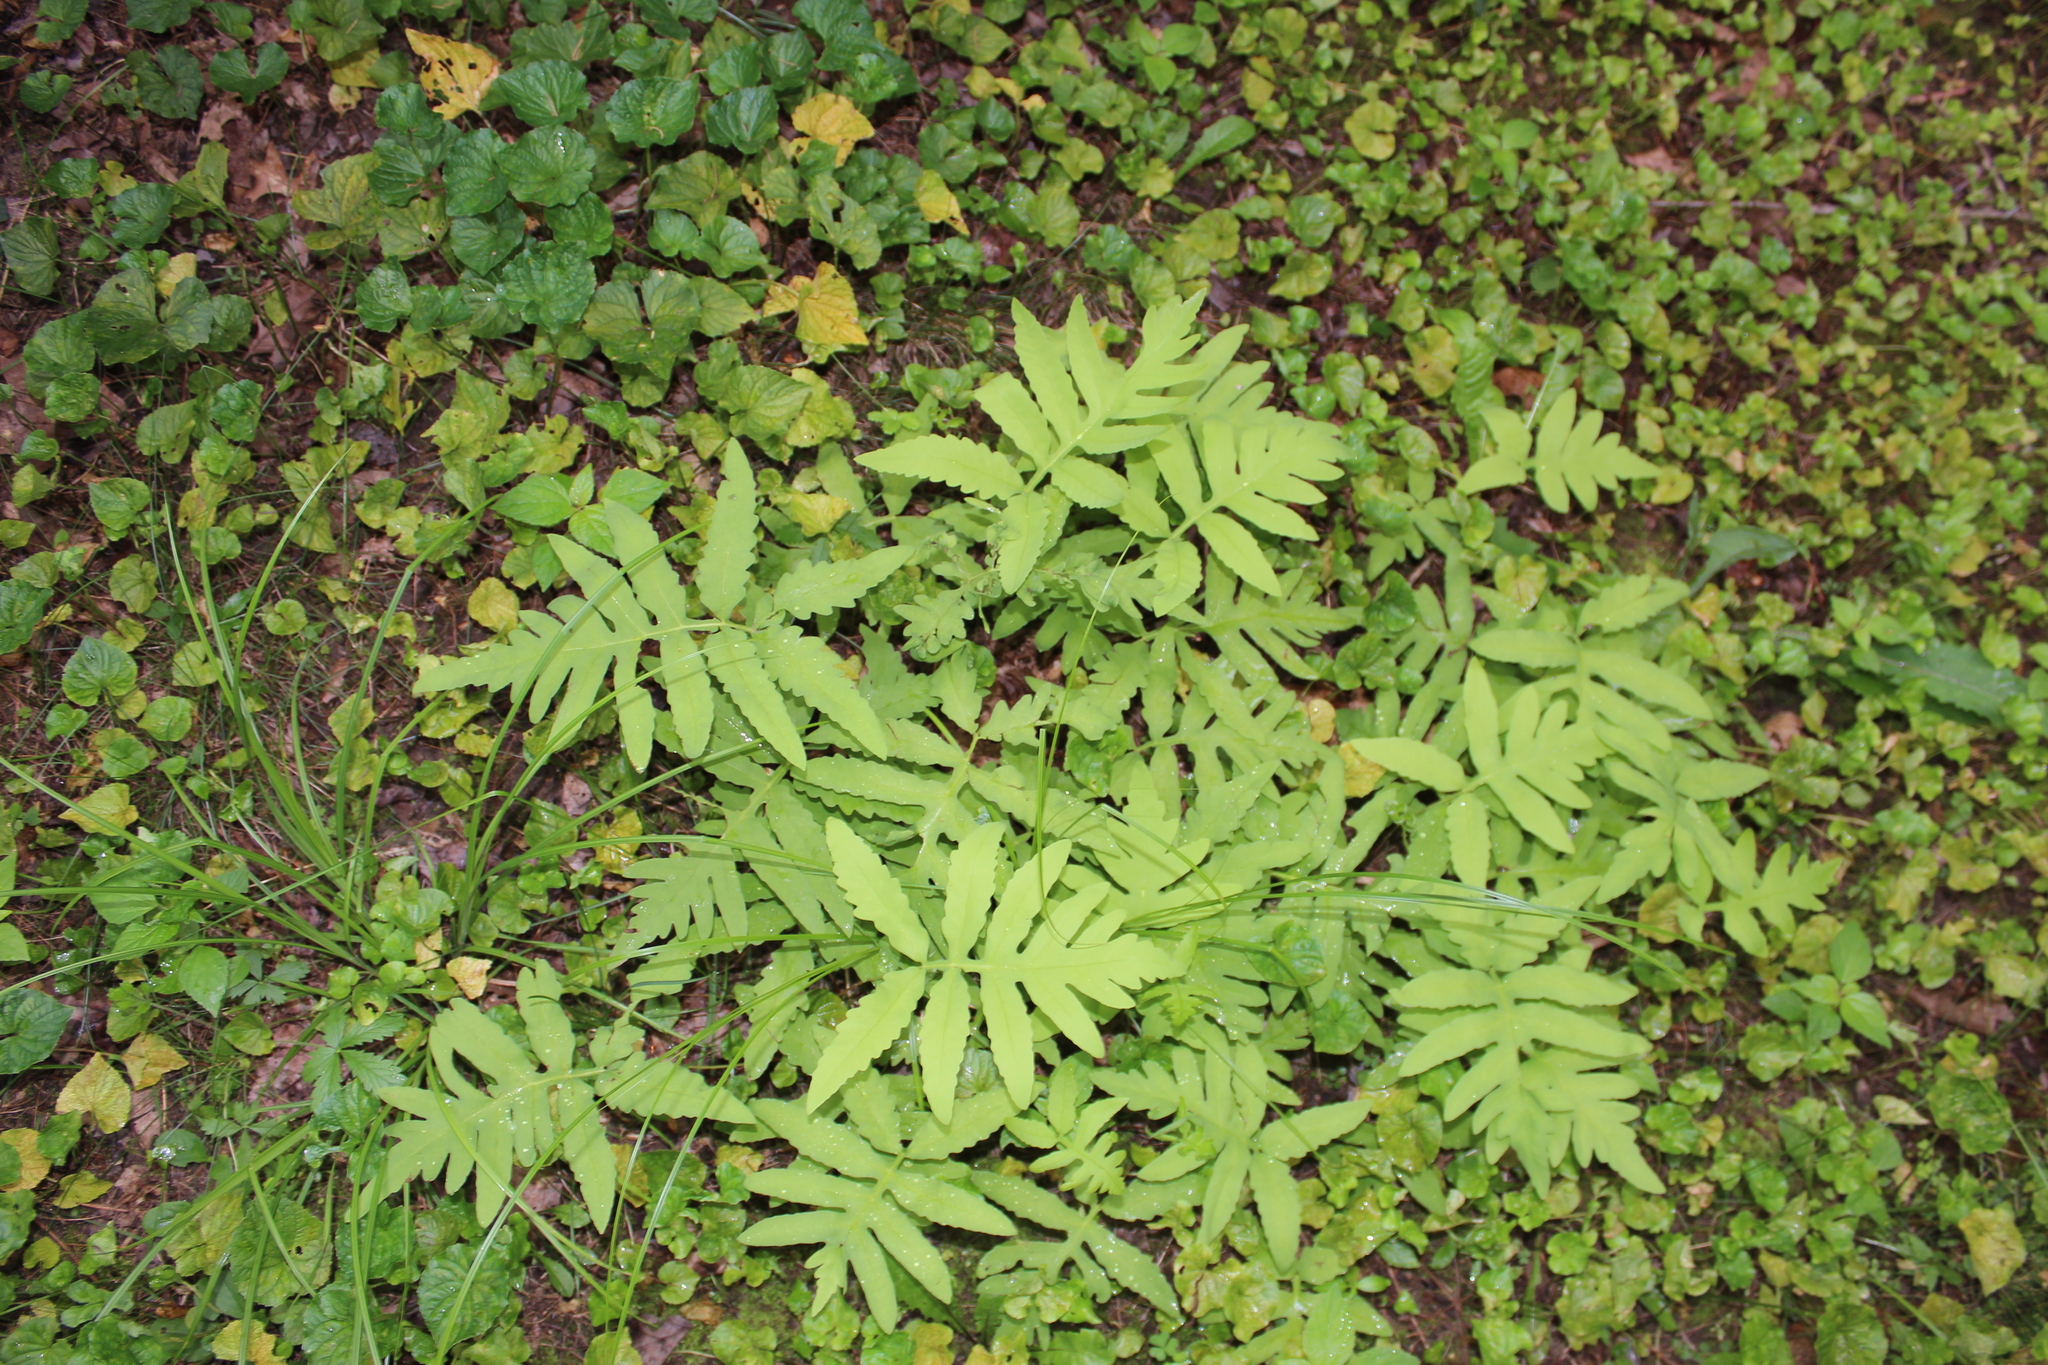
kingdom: Plantae
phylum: Tracheophyta
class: Polypodiopsida
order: Polypodiales
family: Onocleaceae
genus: Onoclea
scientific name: Onoclea sensibilis
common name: Sensitive fern
